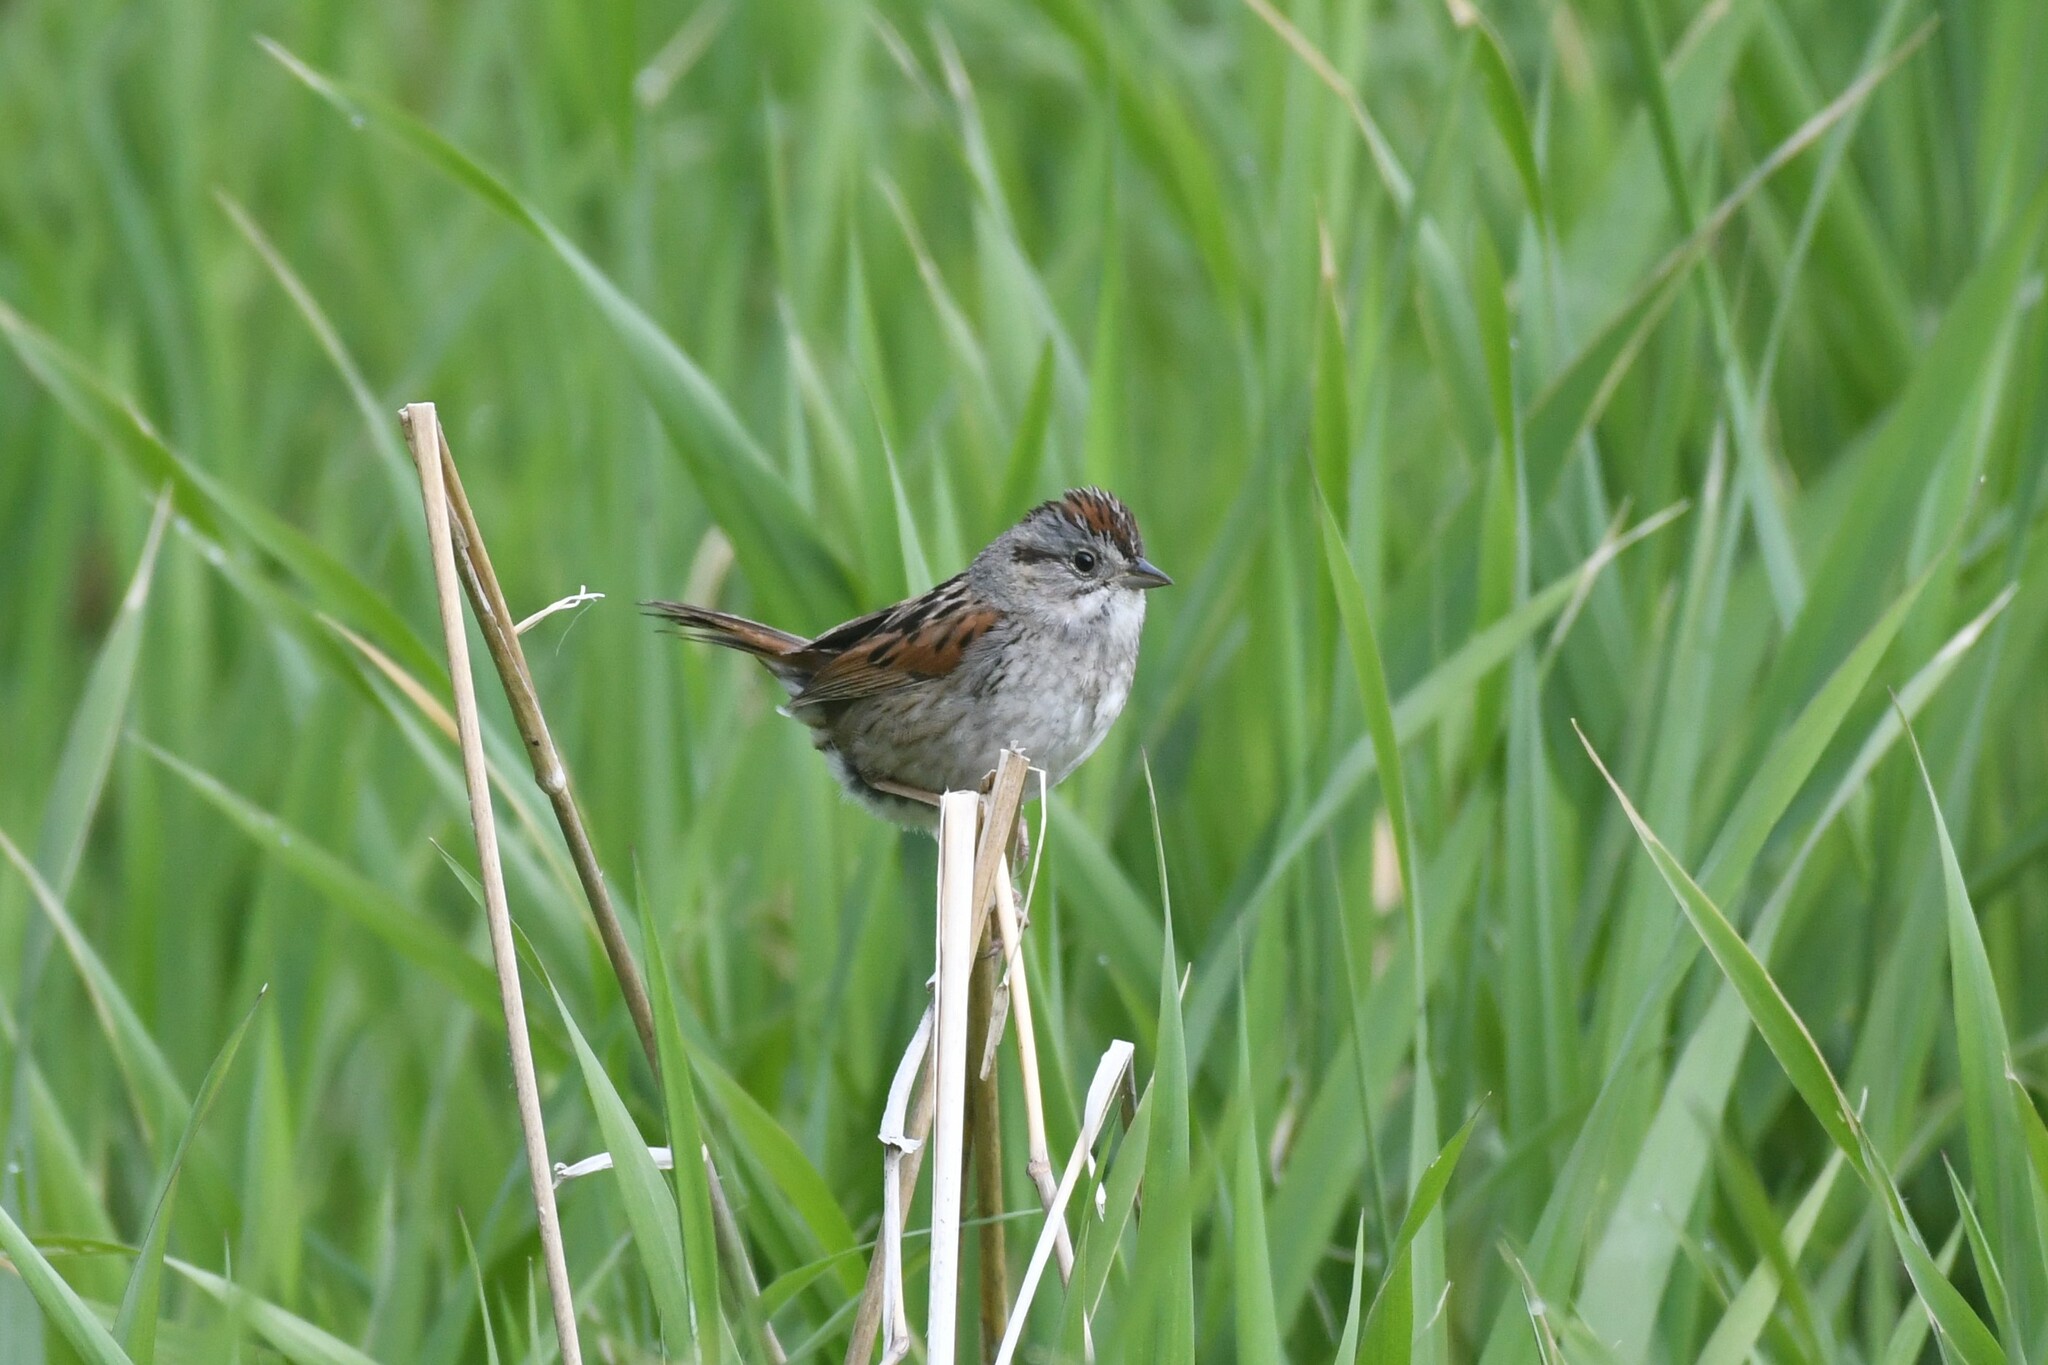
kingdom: Animalia
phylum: Chordata
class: Aves
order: Passeriformes
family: Passerellidae
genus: Melospiza
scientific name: Melospiza georgiana
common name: Swamp sparrow
